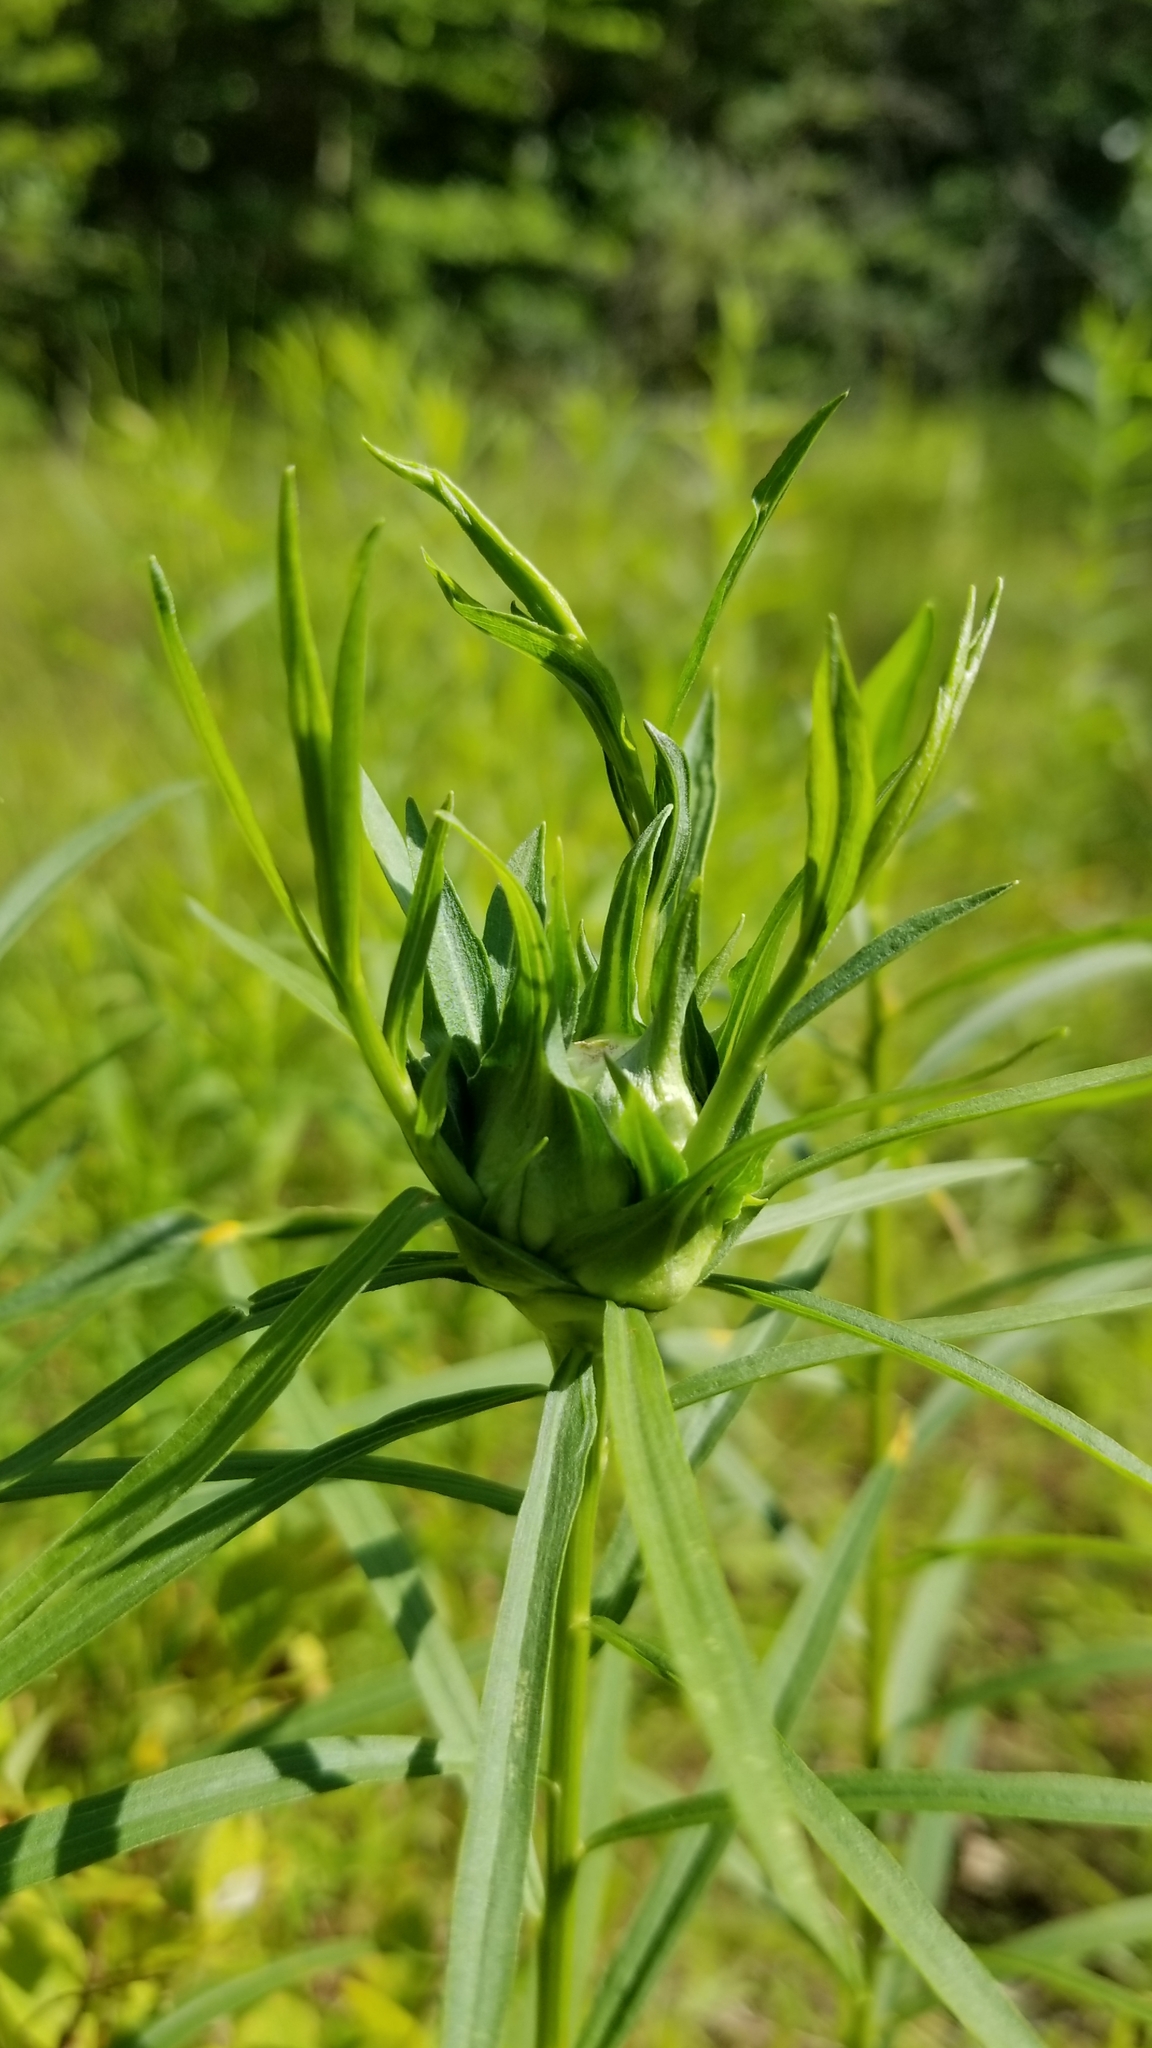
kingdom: Animalia
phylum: Arthropoda
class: Insecta
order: Diptera
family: Cecidomyiidae
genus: Rhopalomyia
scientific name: Rhopalomyia lobata
